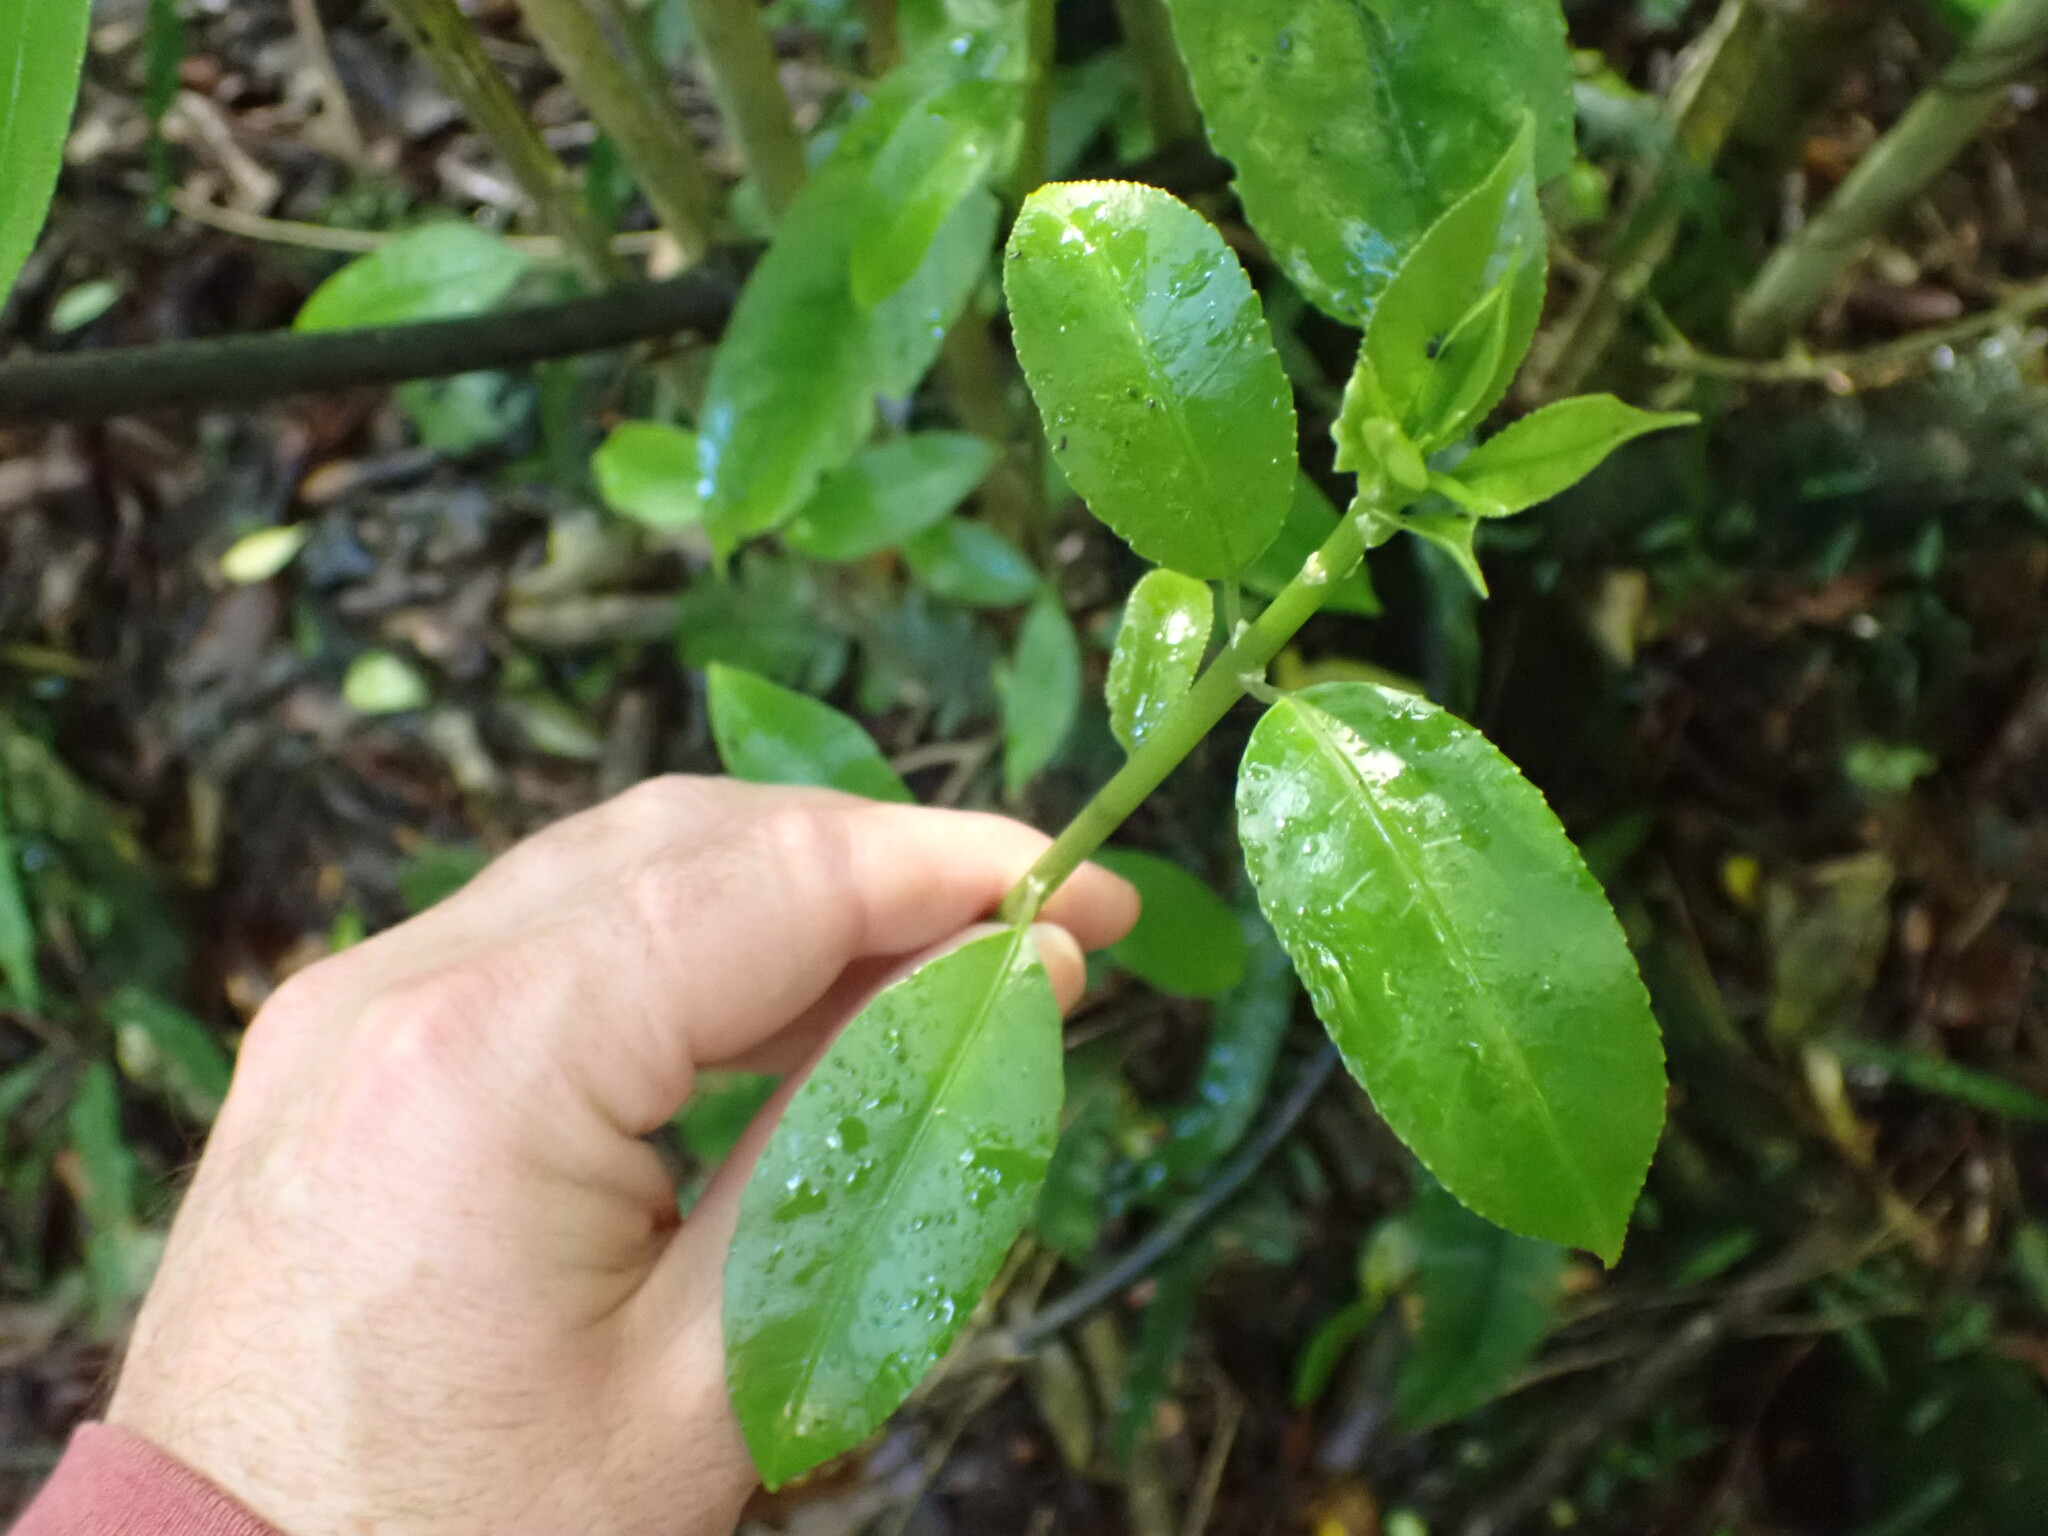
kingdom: Plantae
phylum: Tracheophyta
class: Magnoliopsida
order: Malpighiales
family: Violaceae
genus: Melicytus
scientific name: Melicytus ramiflorus
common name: Mahoe
